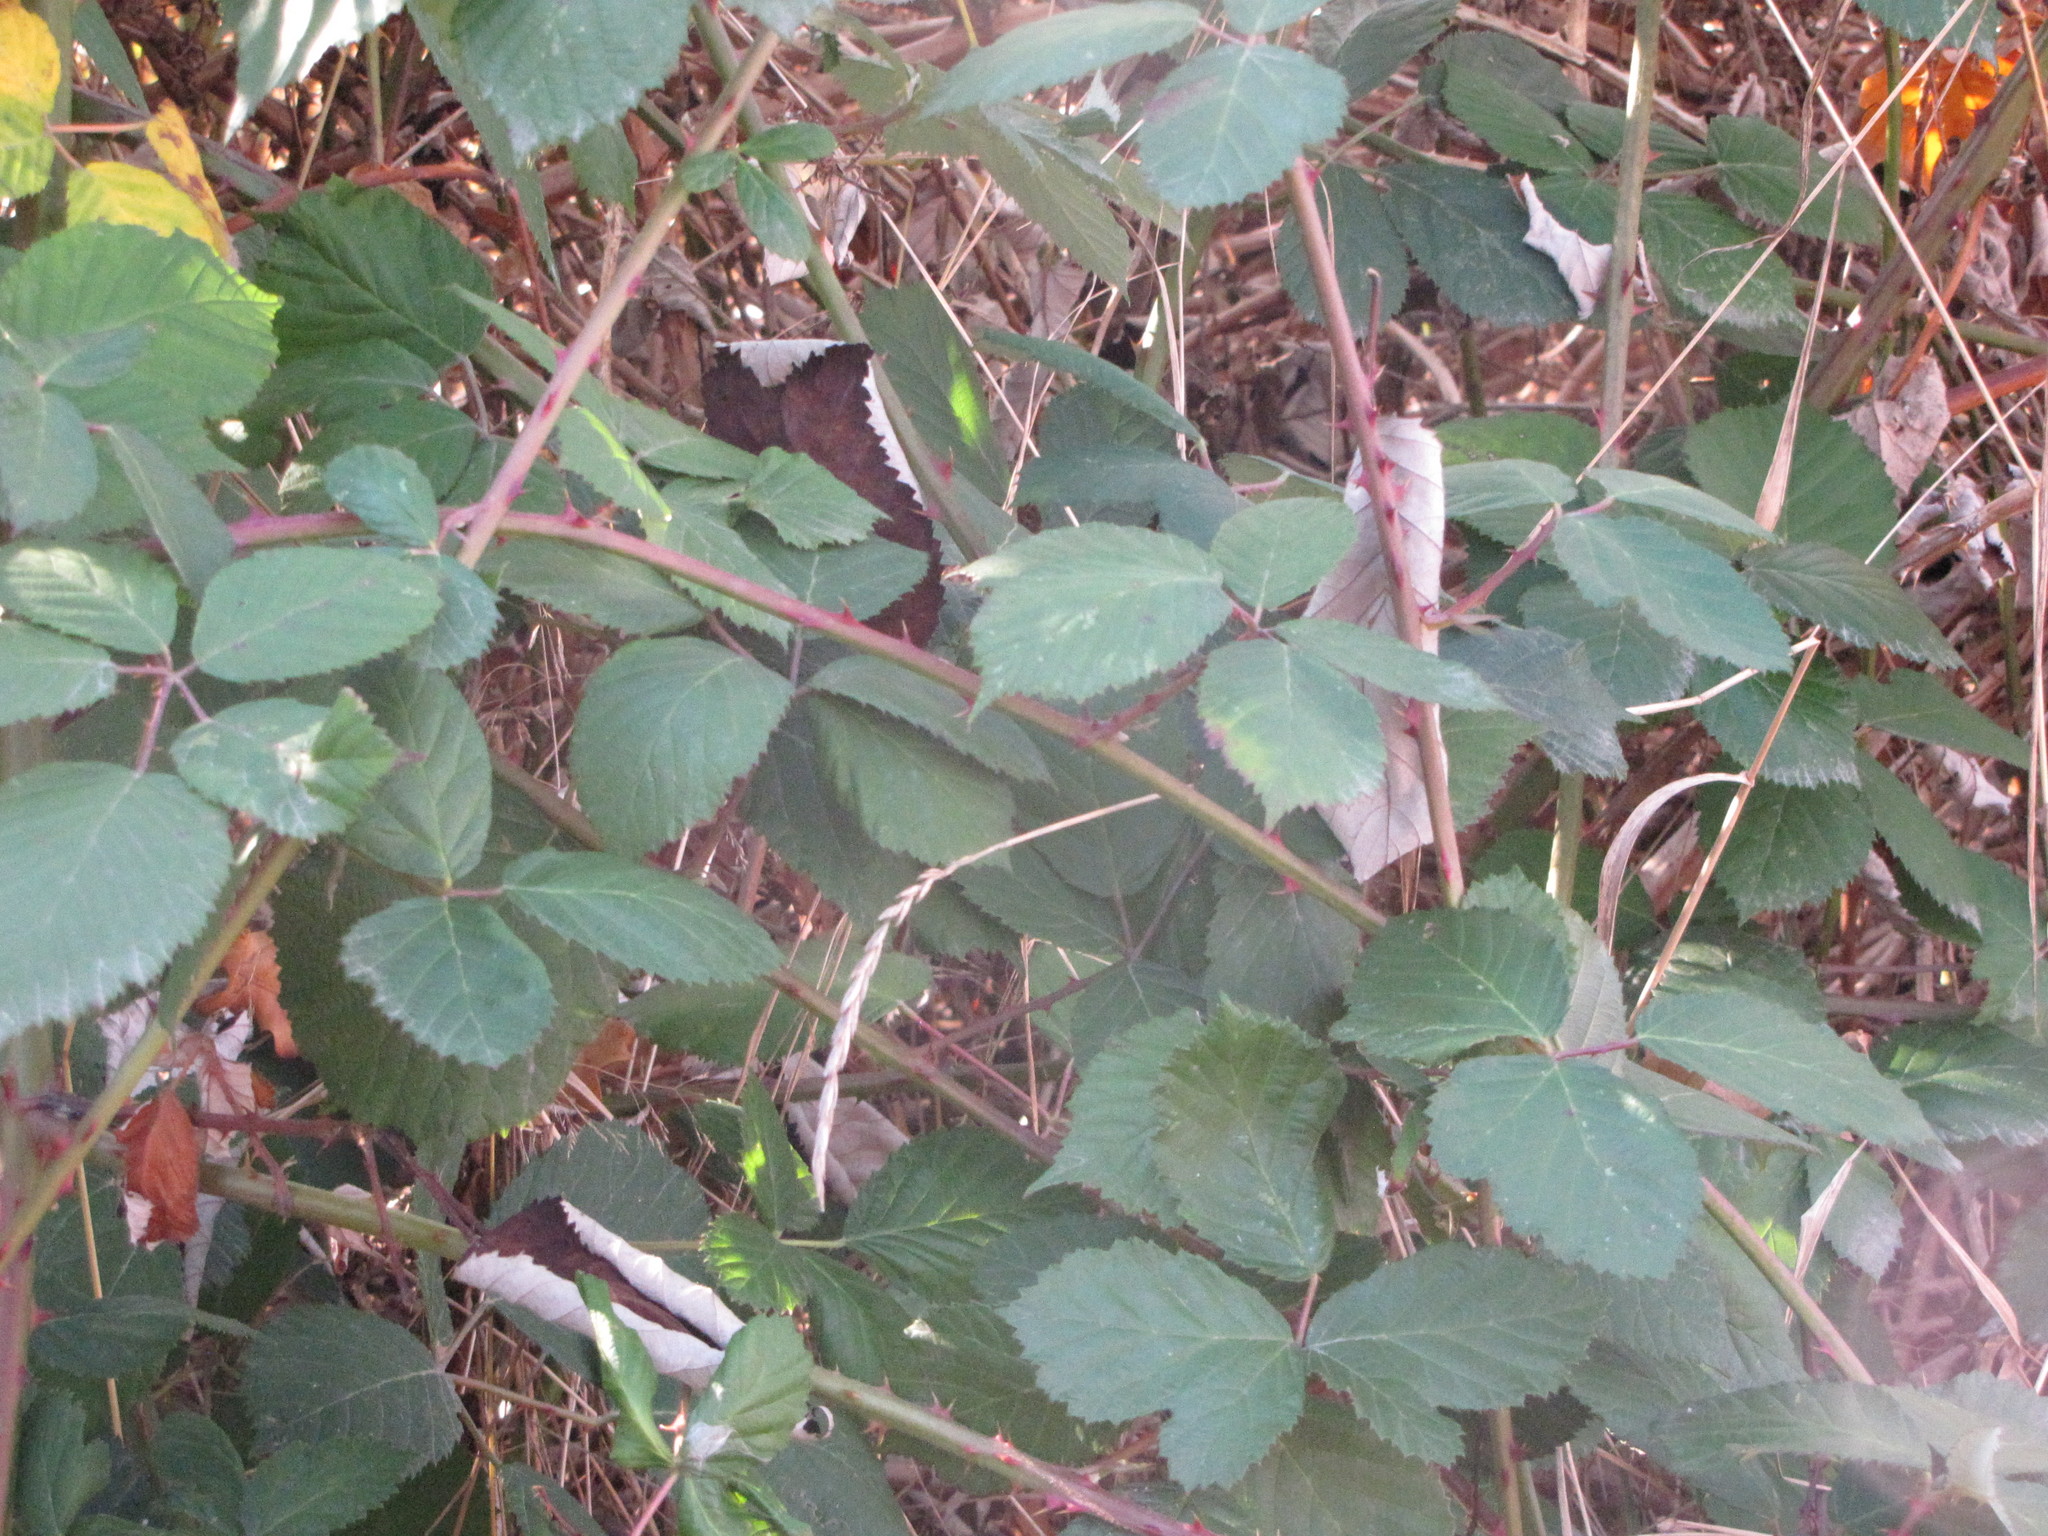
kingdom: Plantae
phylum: Tracheophyta
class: Magnoliopsida
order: Rosales
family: Rosaceae
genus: Rubus
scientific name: Rubus armeniacus
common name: Himalayan blackberry
